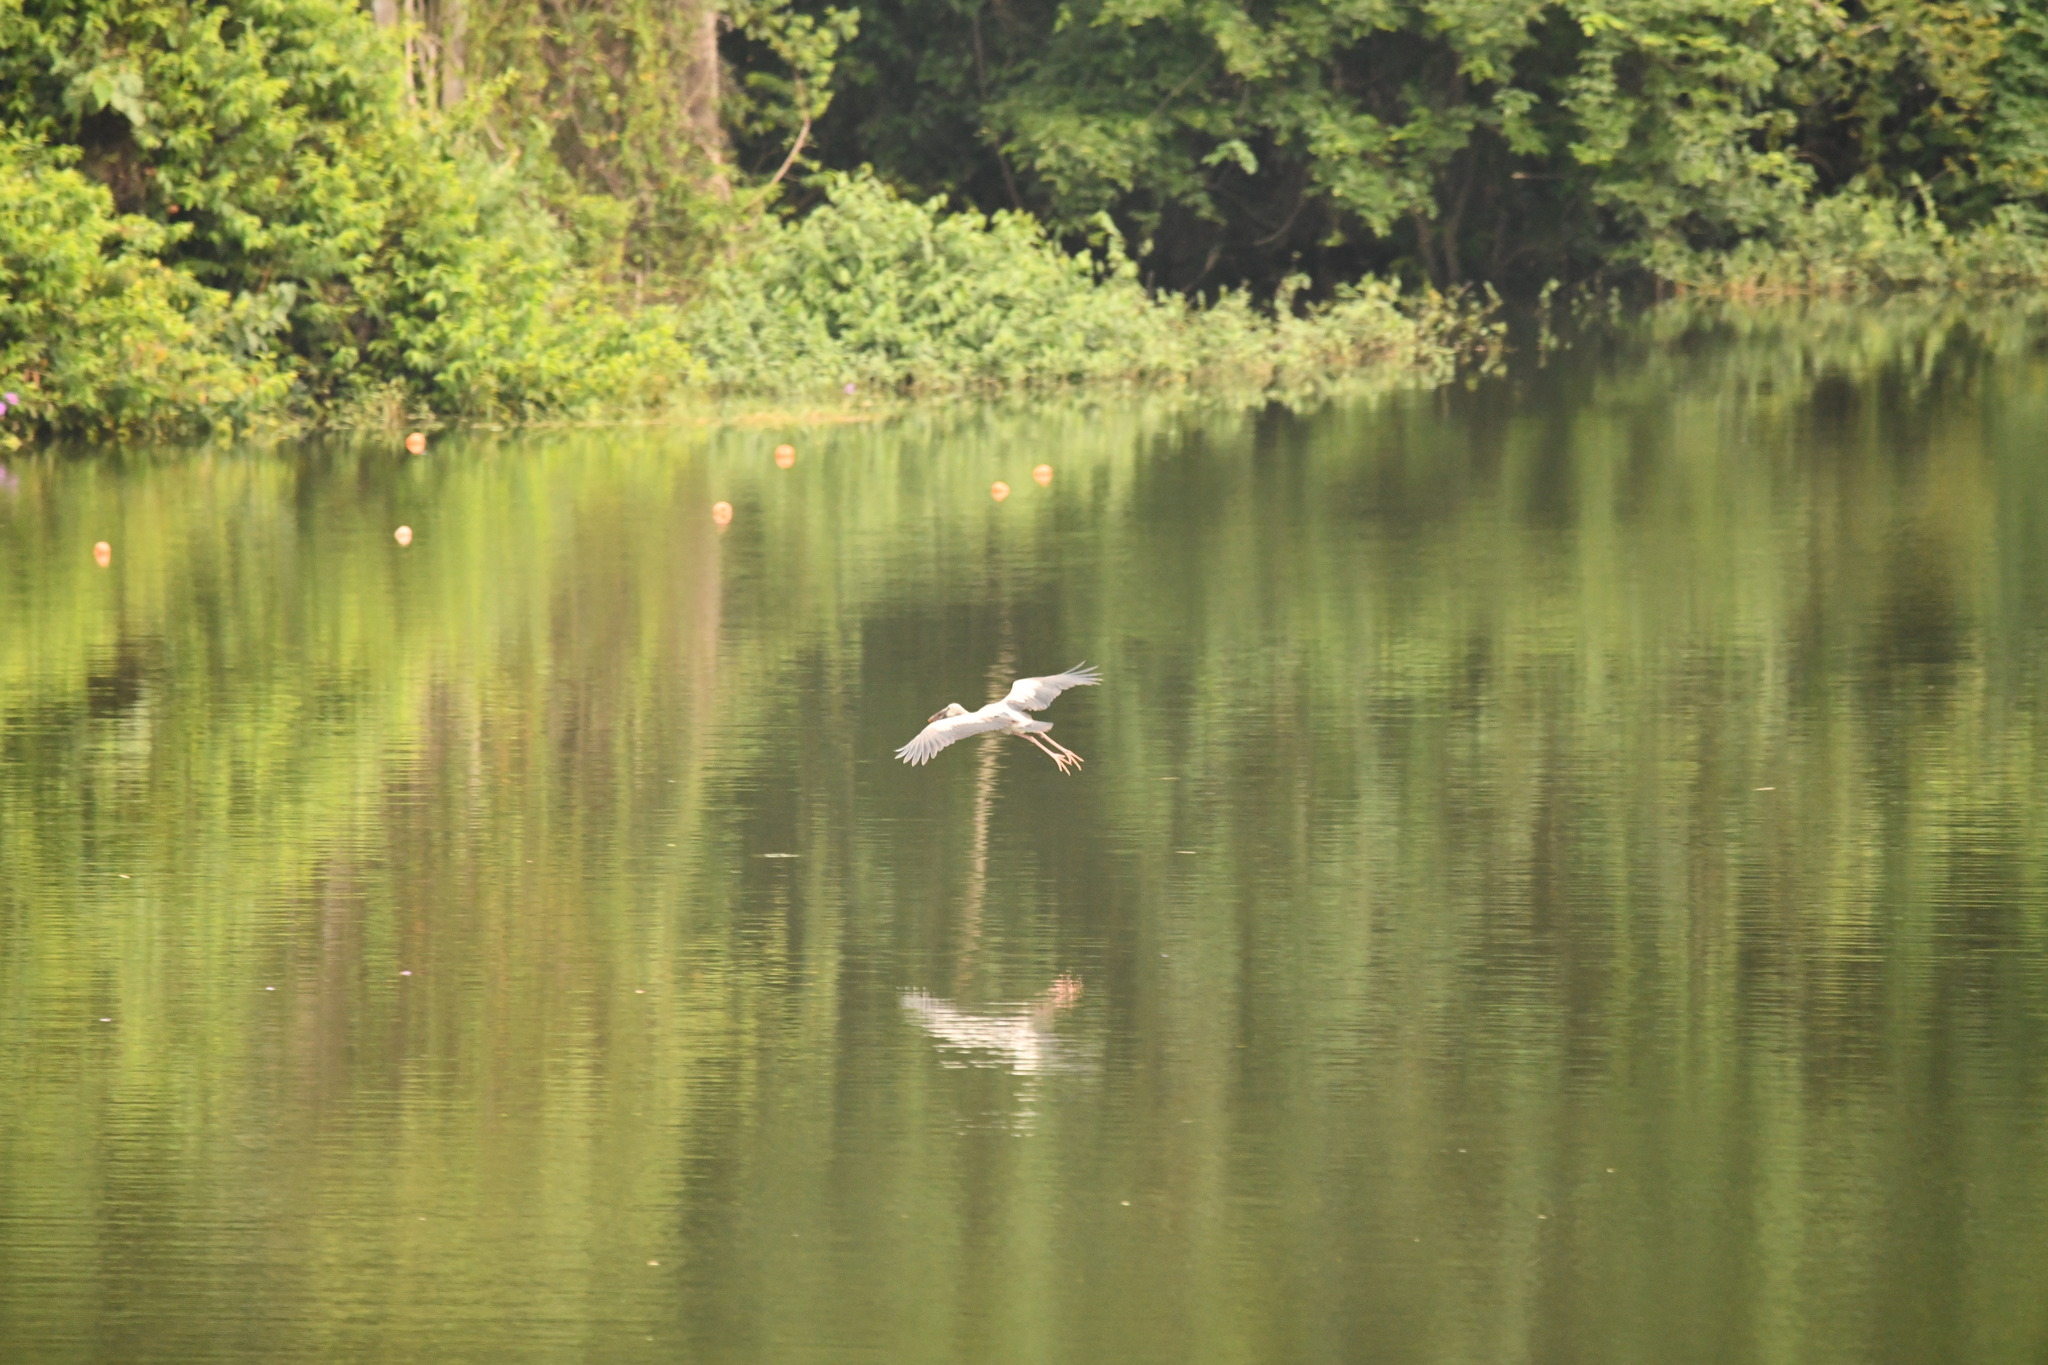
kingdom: Animalia
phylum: Chordata
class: Aves
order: Ciconiiformes
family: Ciconiidae
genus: Anastomus
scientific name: Anastomus oscitans
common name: Asian openbill
